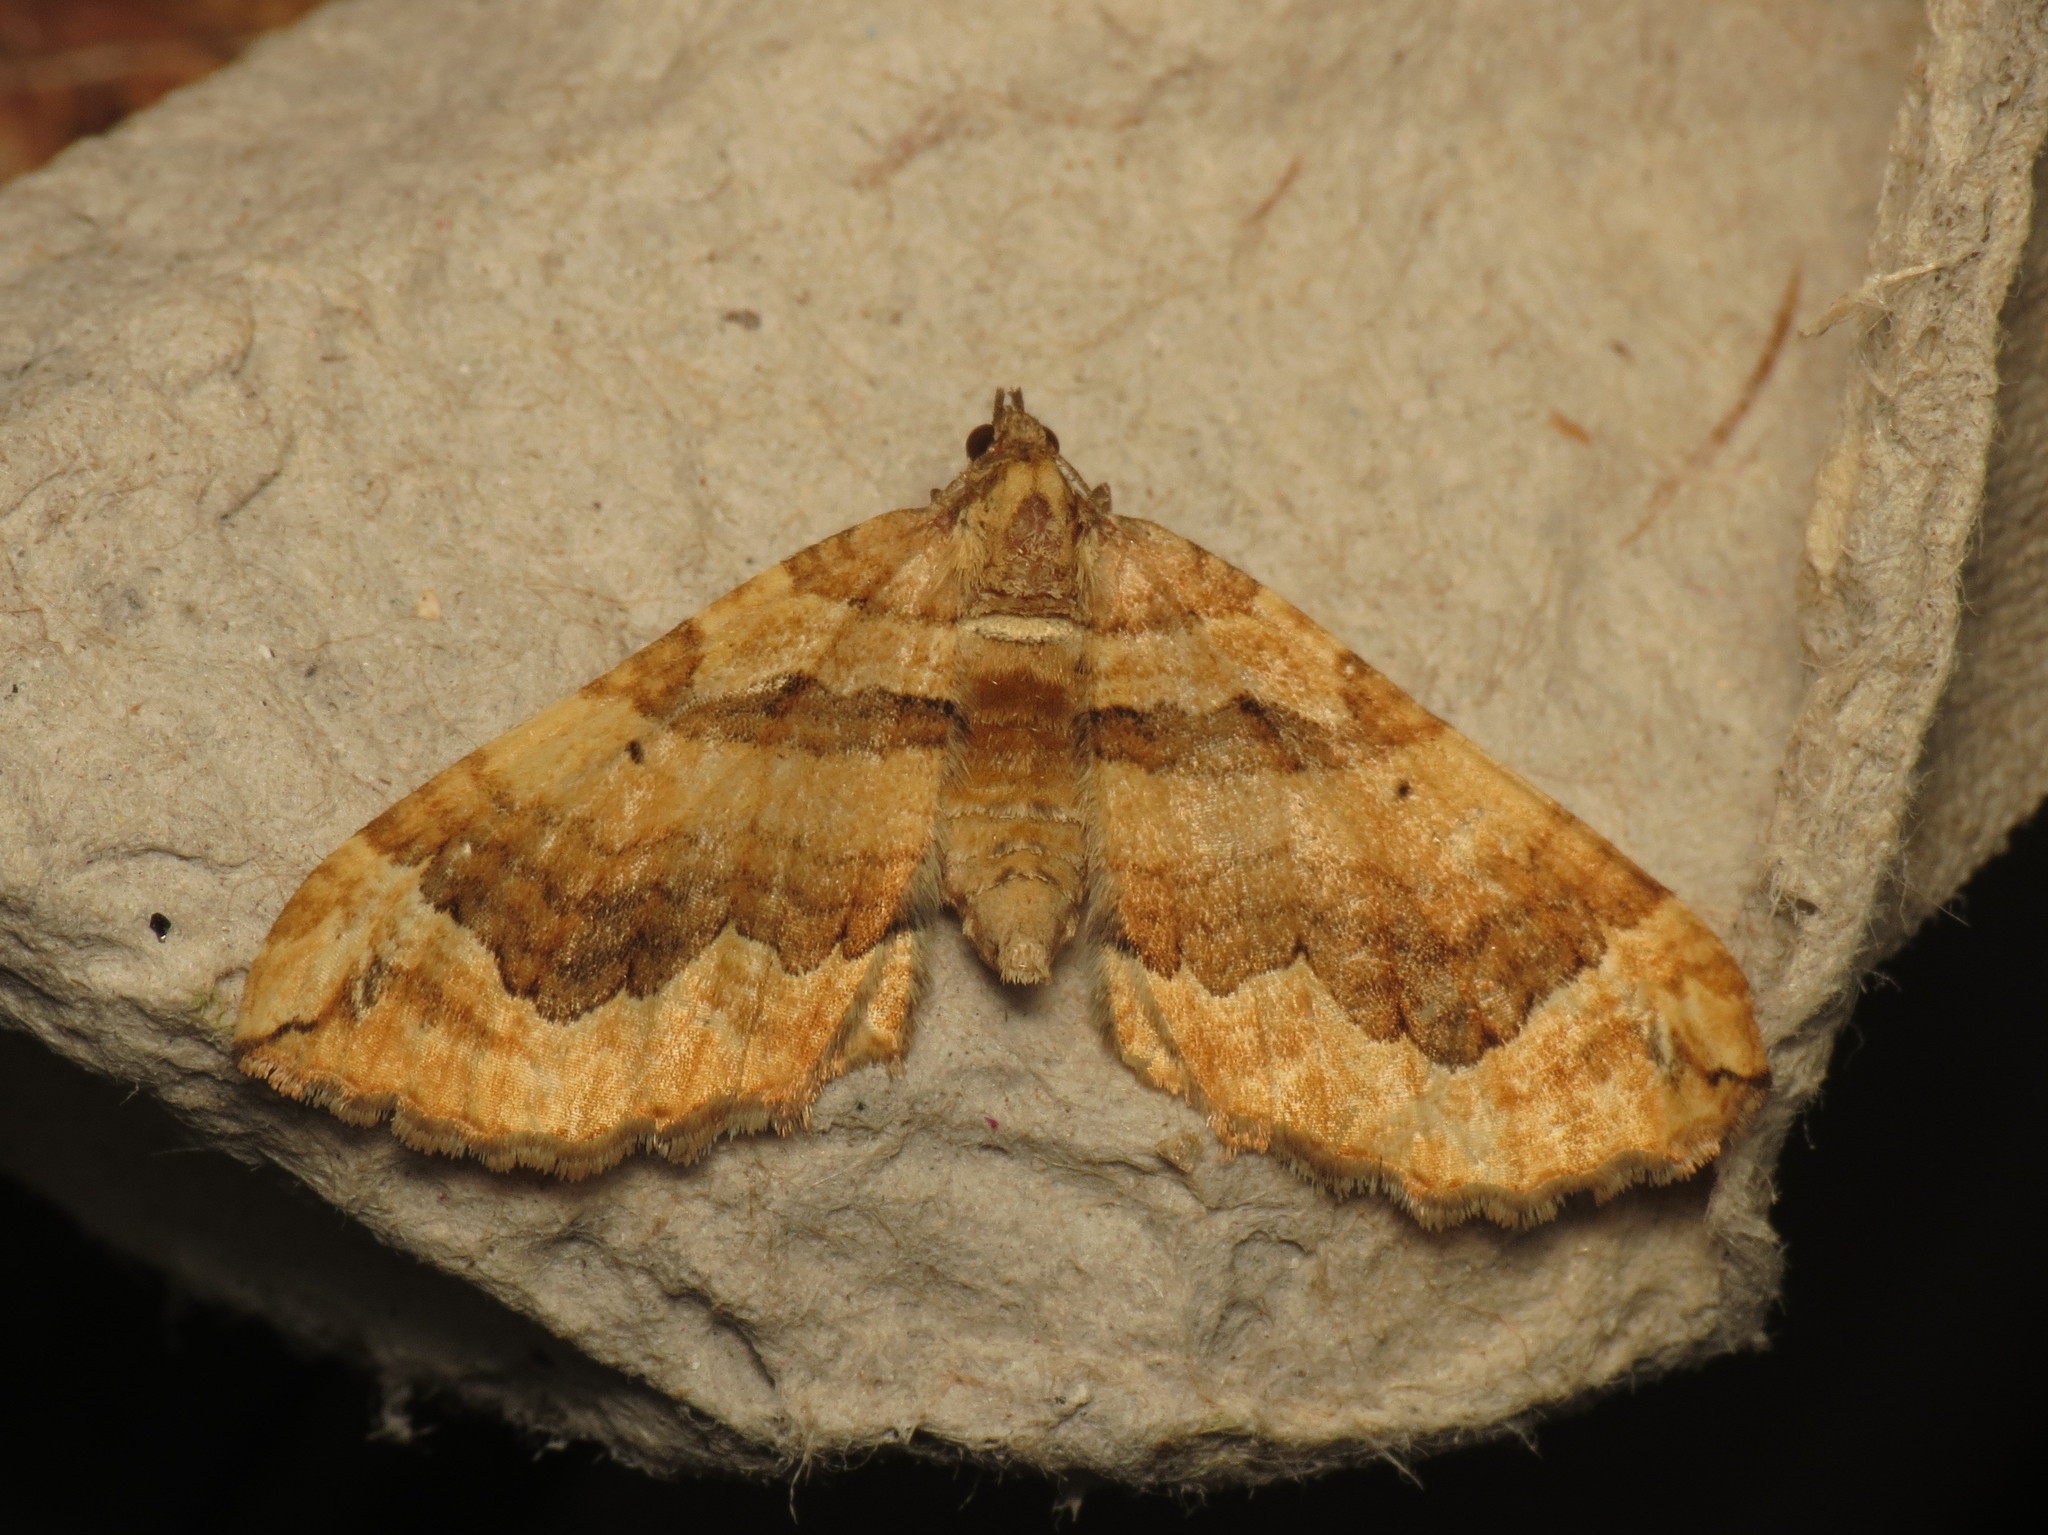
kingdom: Animalia
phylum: Arthropoda
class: Insecta
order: Lepidoptera
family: Geometridae
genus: Pelurga
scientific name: Pelurga comitata
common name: Dark spinach
